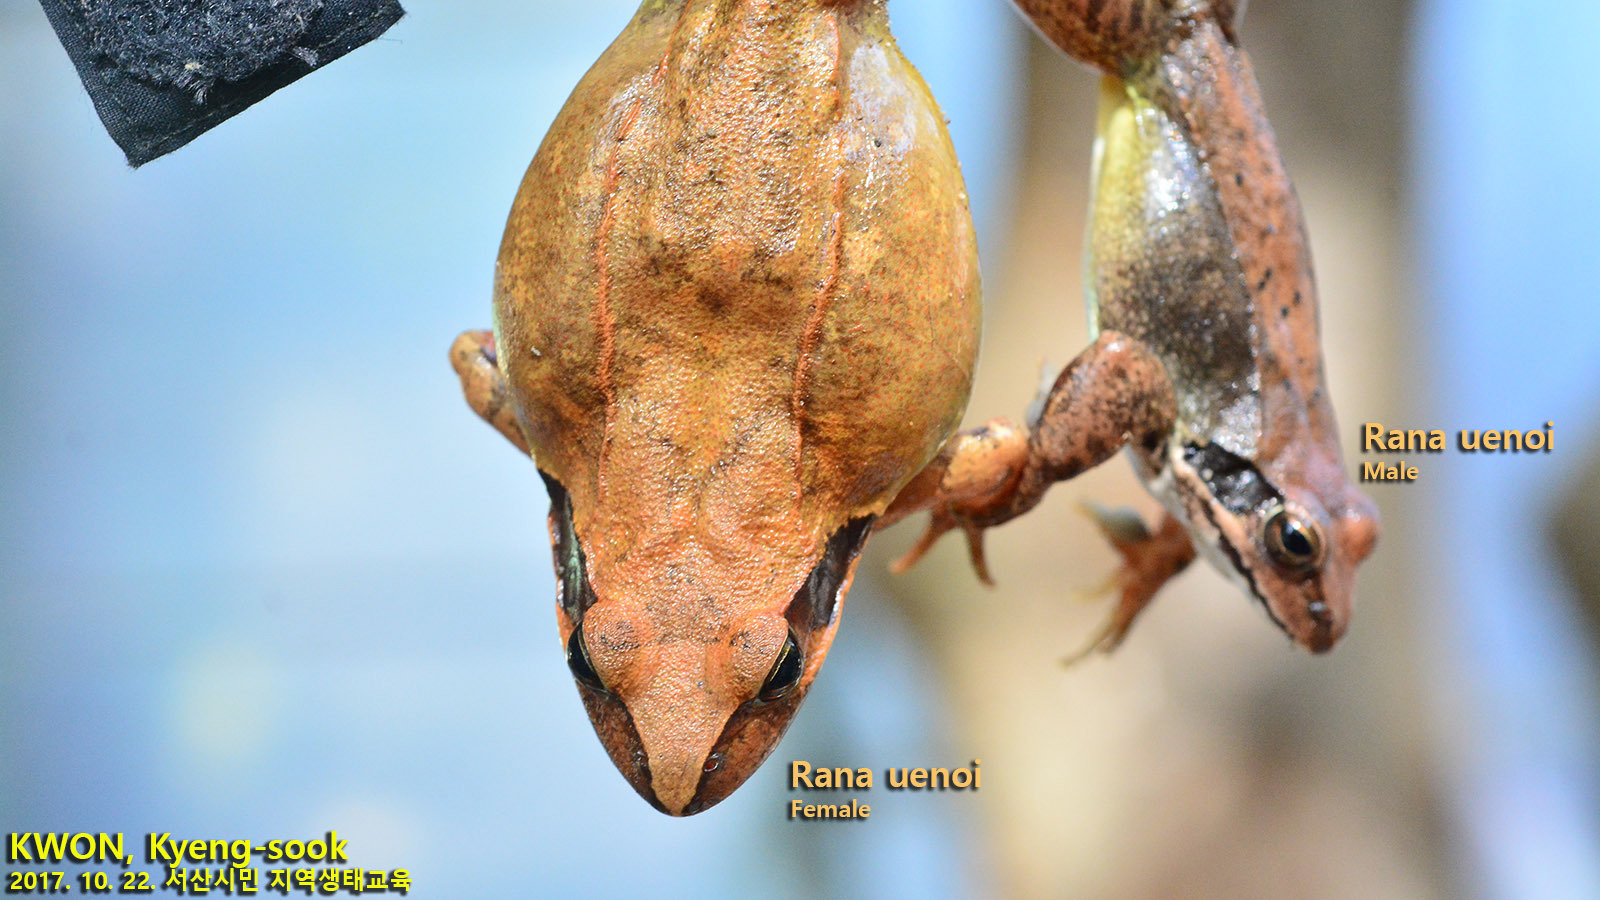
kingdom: Animalia
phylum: Chordata
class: Amphibia
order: Anura
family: Ranidae
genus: Rana
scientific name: Rana uenoi
